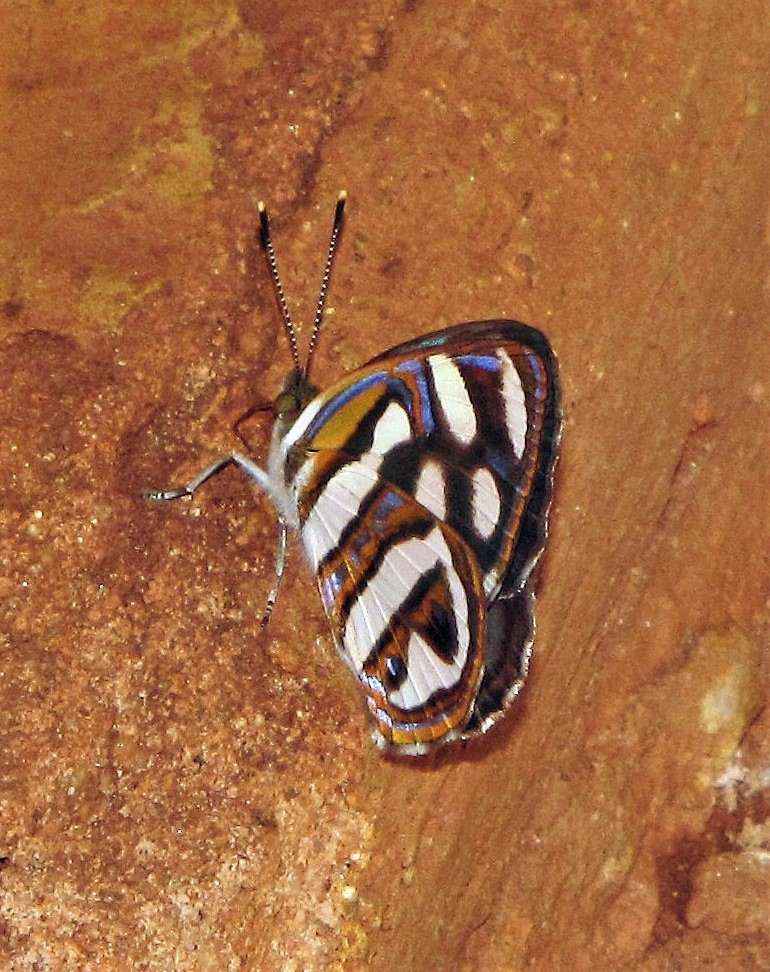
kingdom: Animalia
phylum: Arthropoda
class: Insecta
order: Lepidoptera
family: Nymphalidae
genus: Dynamine
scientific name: Dynamine artemisia
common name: Small-eyed sailor
